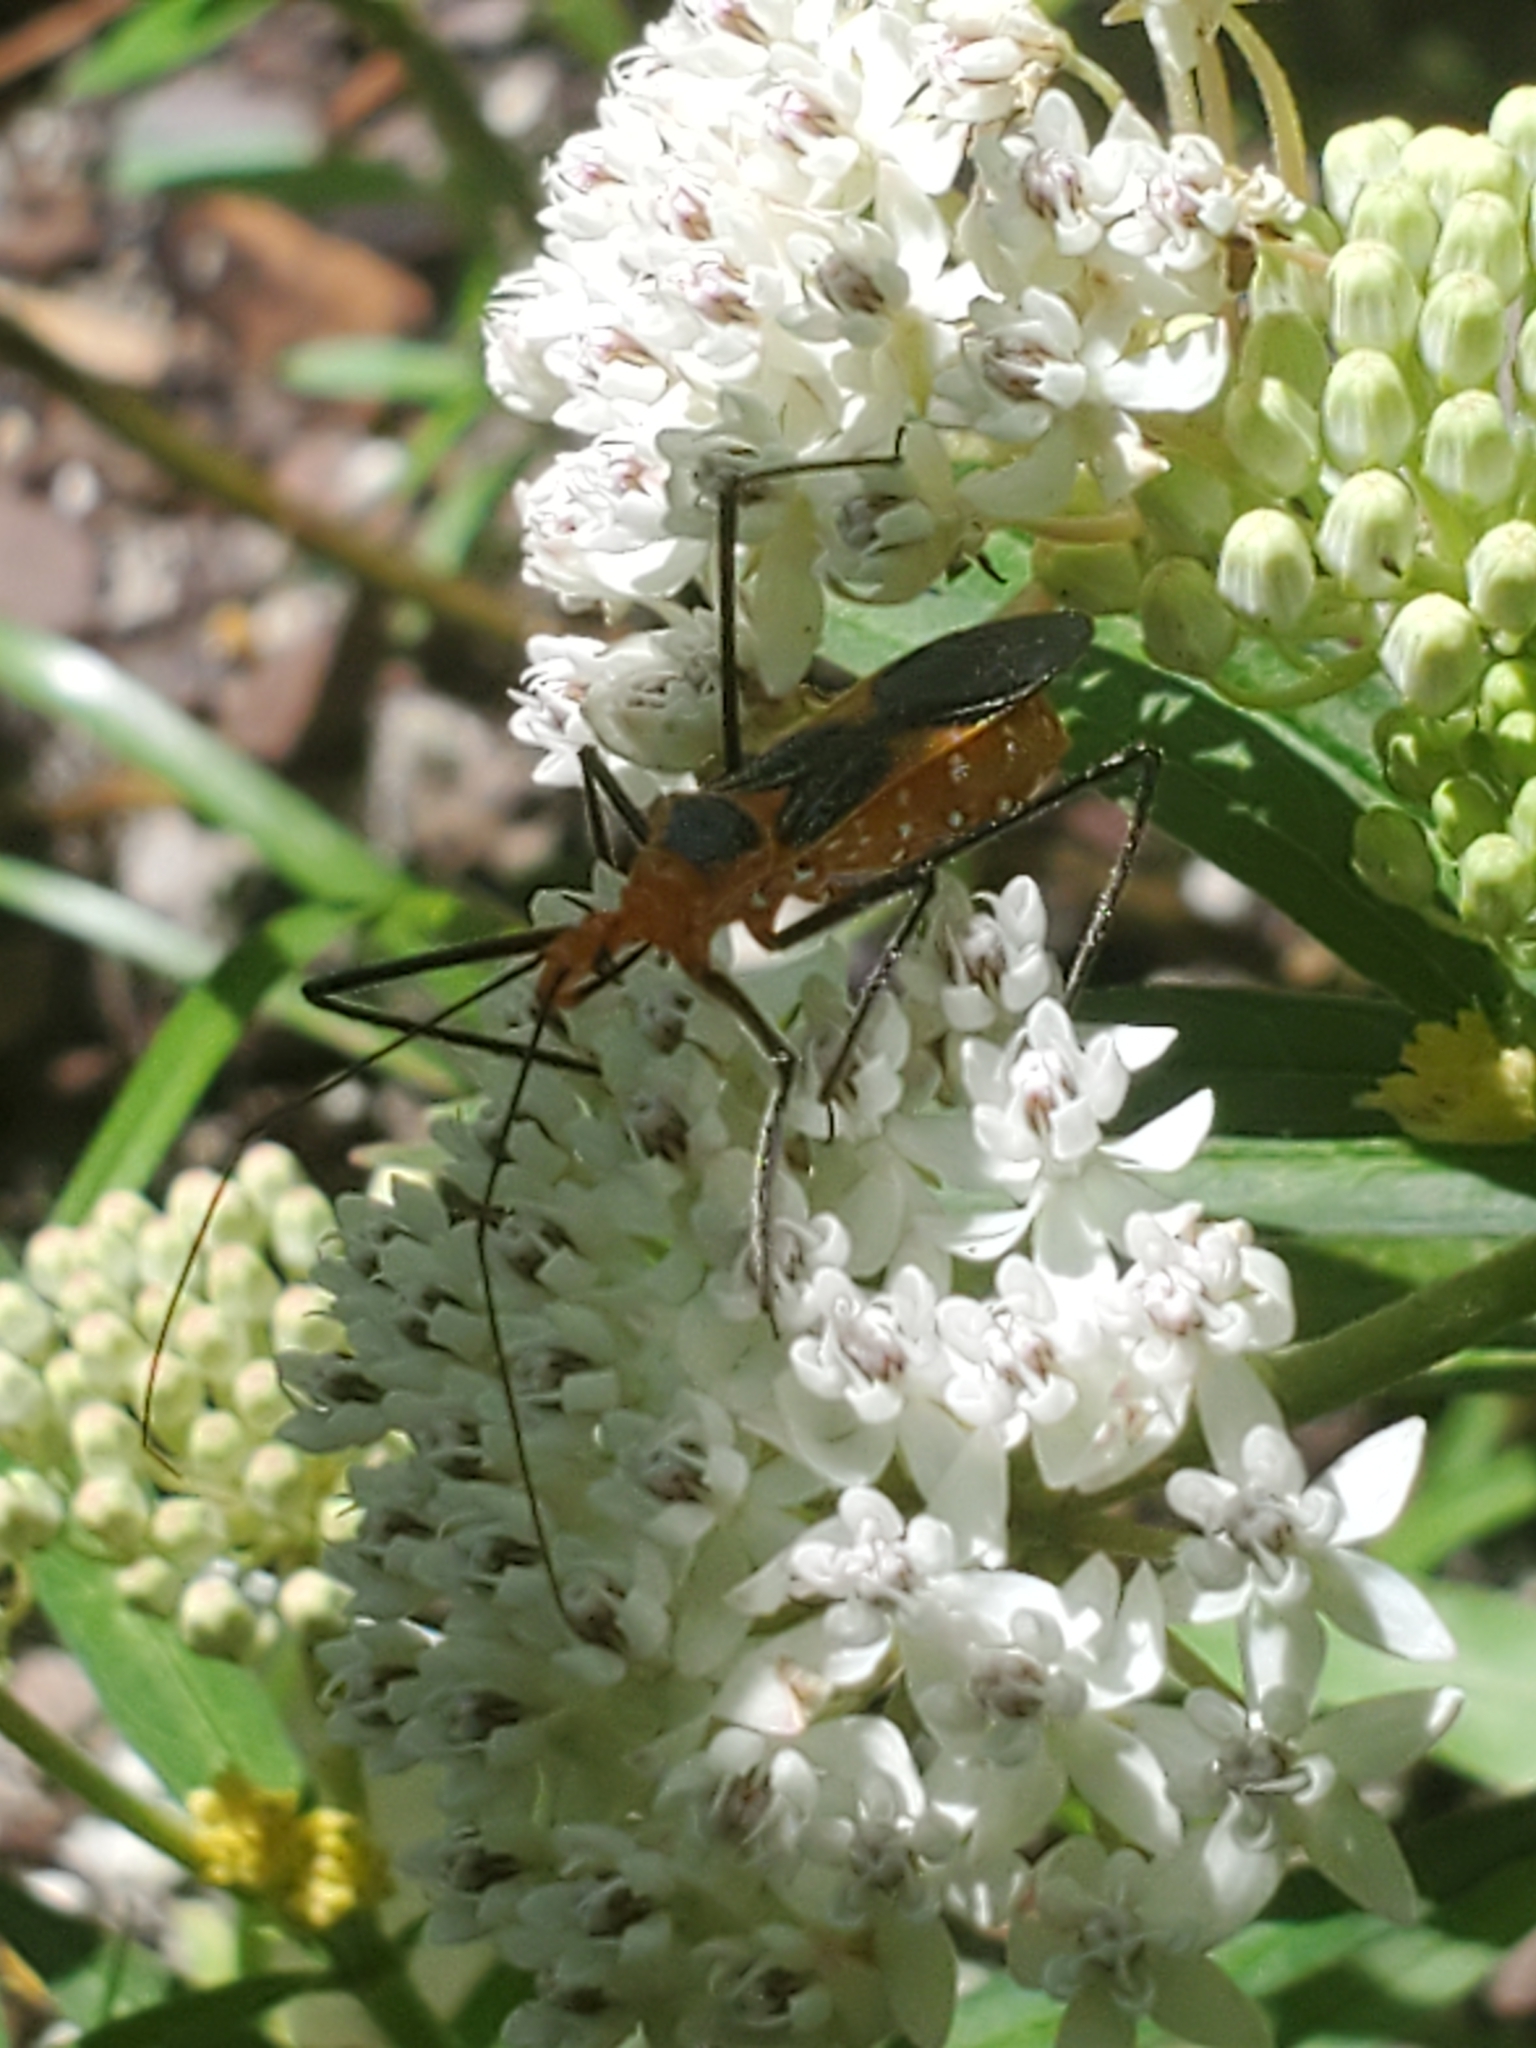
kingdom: Animalia
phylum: Arthropoda
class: Insecta
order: Hemiptera
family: Reduviidae
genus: Zelus
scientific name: Zelus longipes
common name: Milkweed assassin bug
